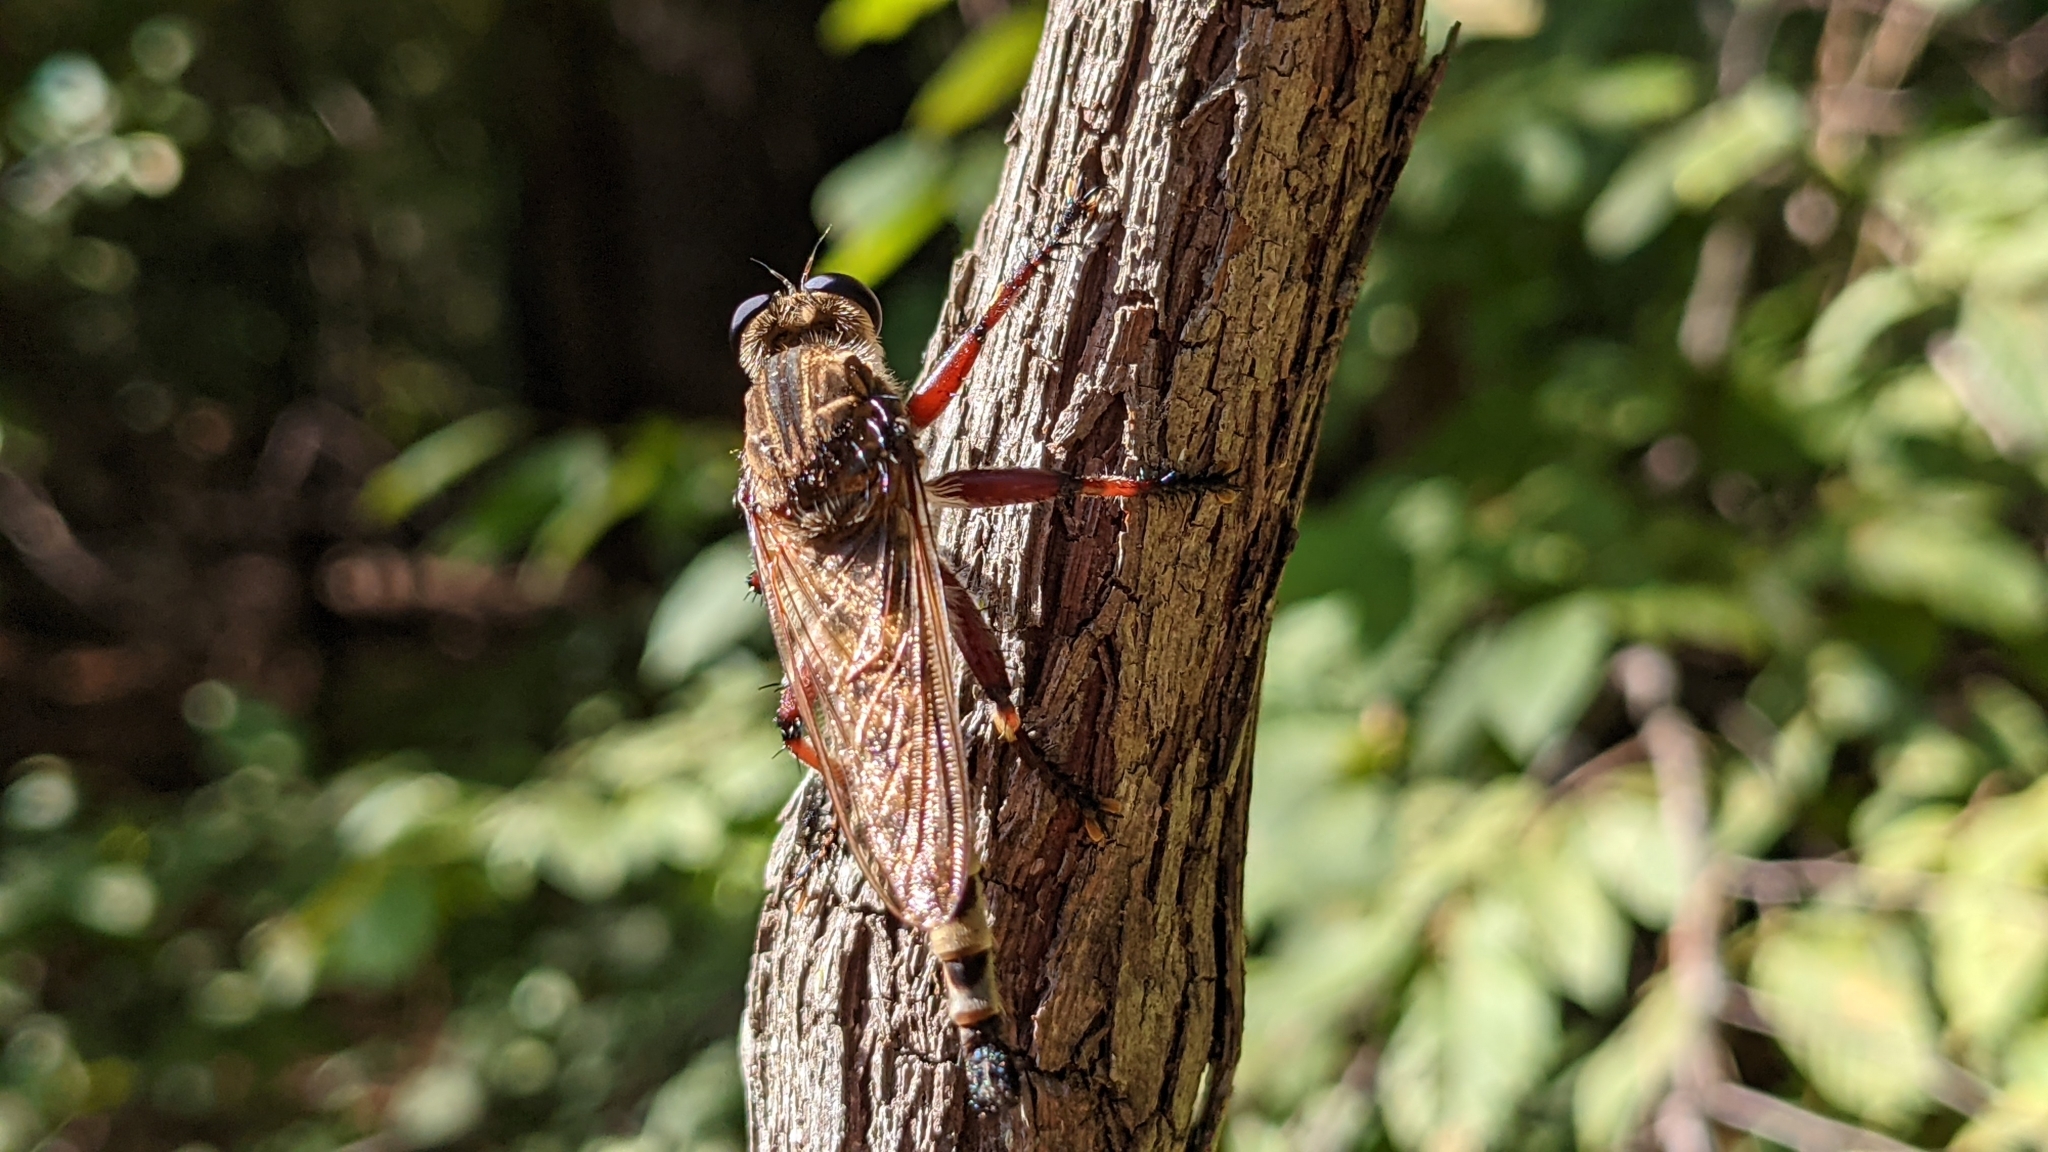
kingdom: Animalia
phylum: Arthropoda
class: Insecta
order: Diptera
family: Asilidae
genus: Promachus
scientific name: Promachus hinei
